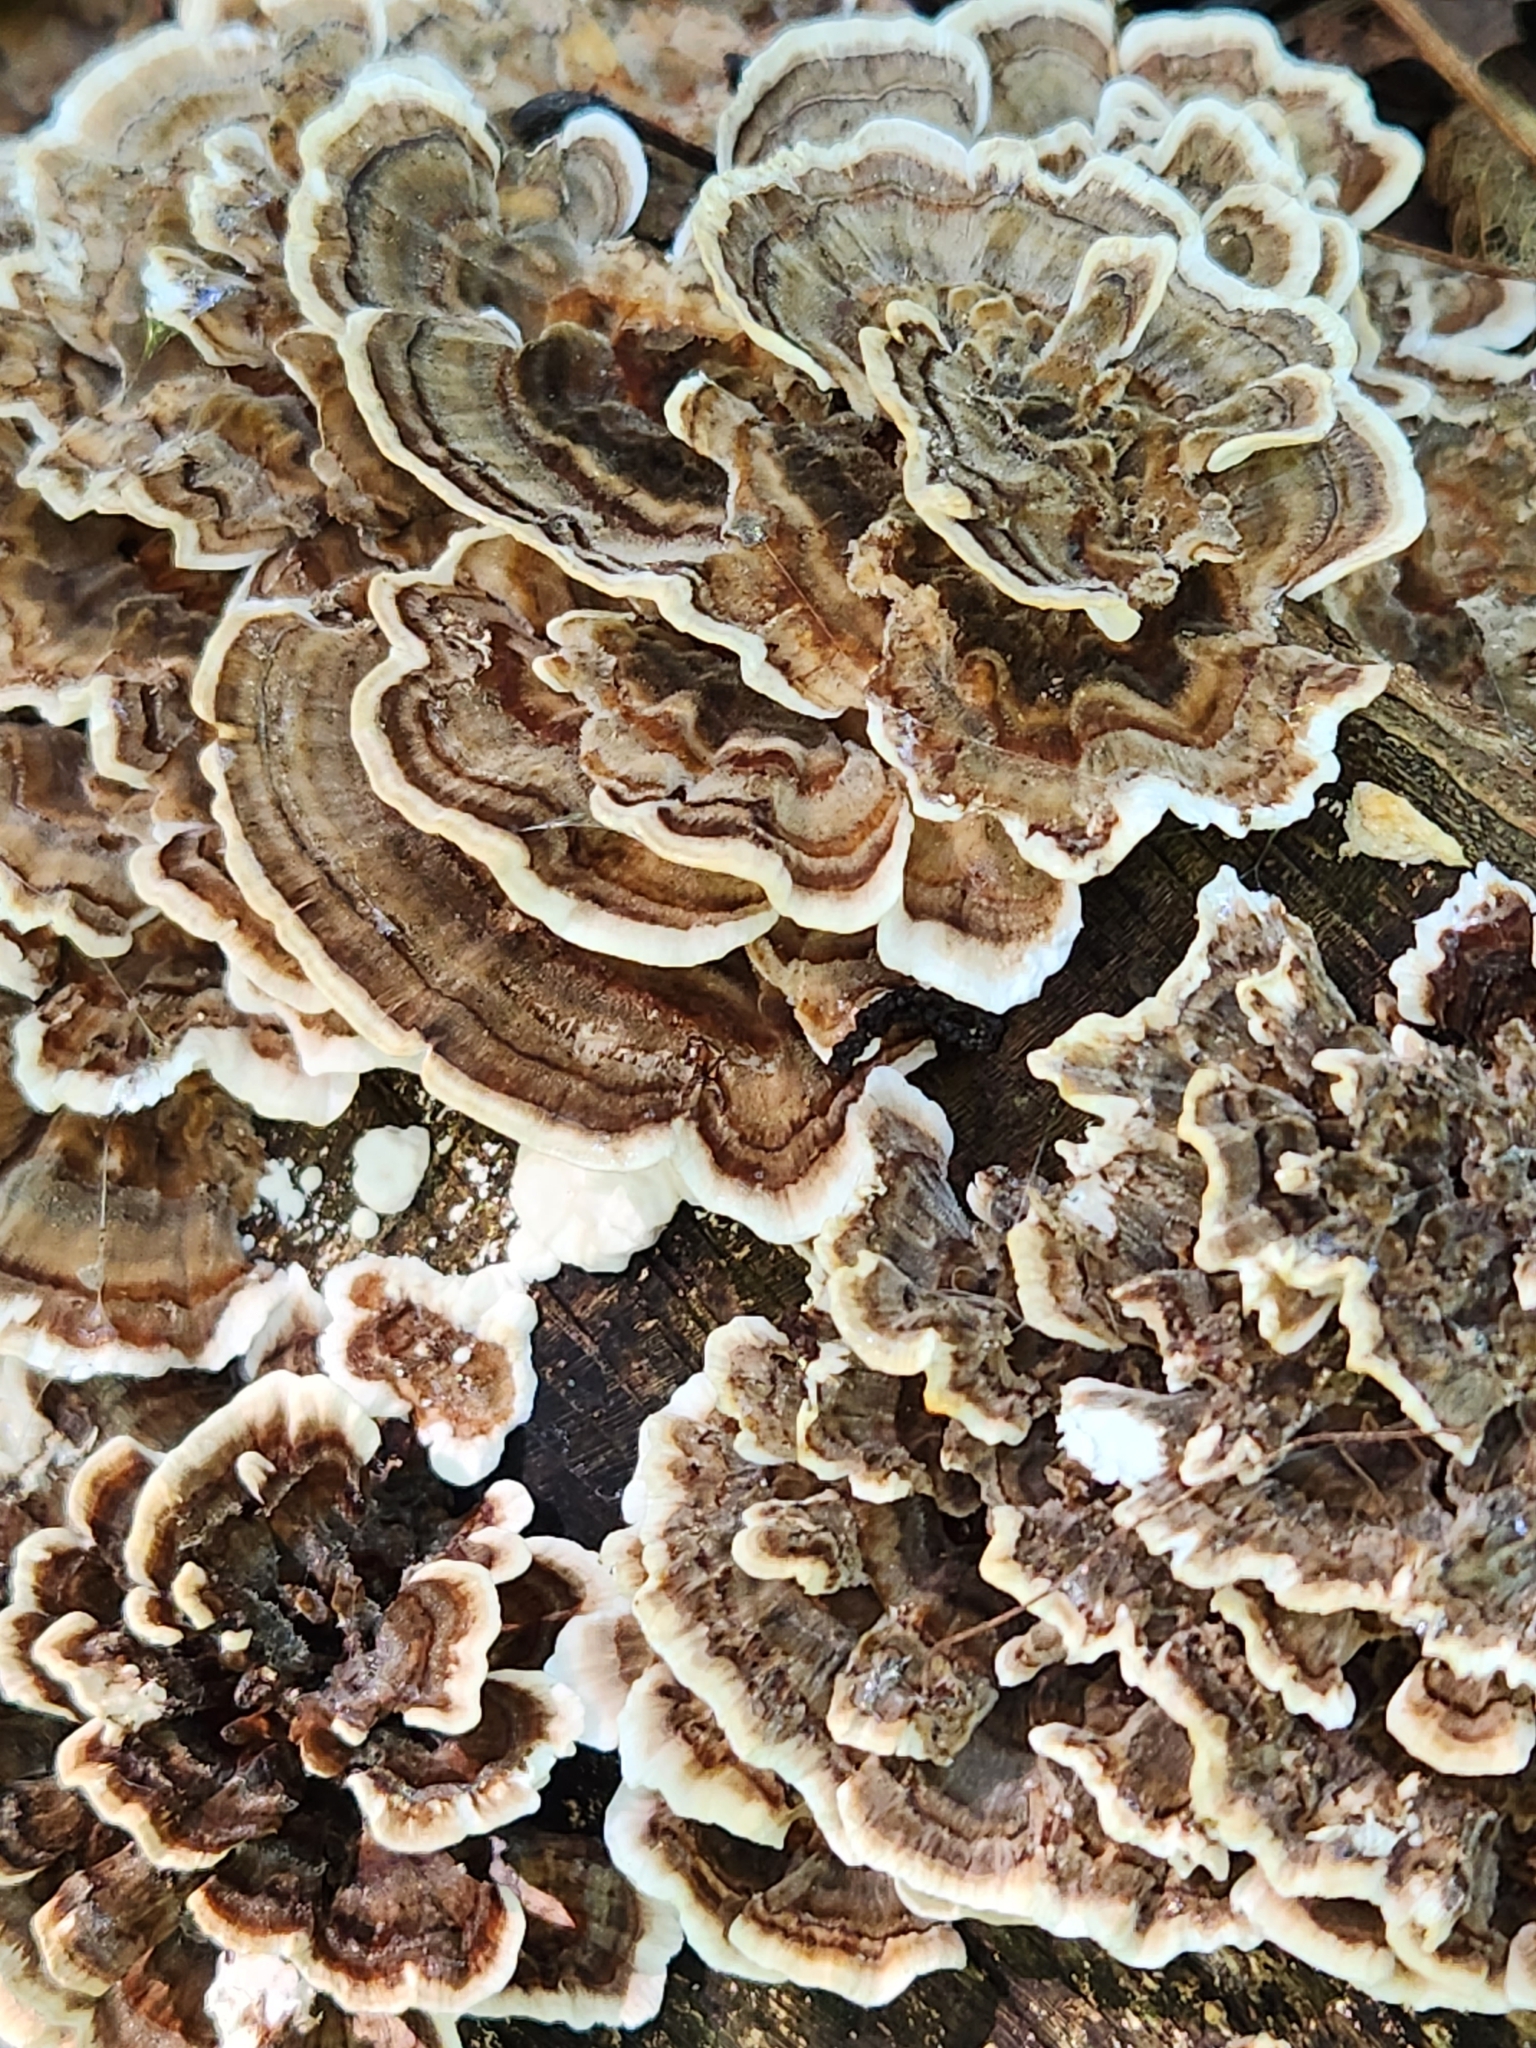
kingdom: Fungi
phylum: Basidiomycota
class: Agaricomycetes
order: Polyporales
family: Polyporaceae
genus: Trametes
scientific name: Trametes versicolor
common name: Turkeytail
